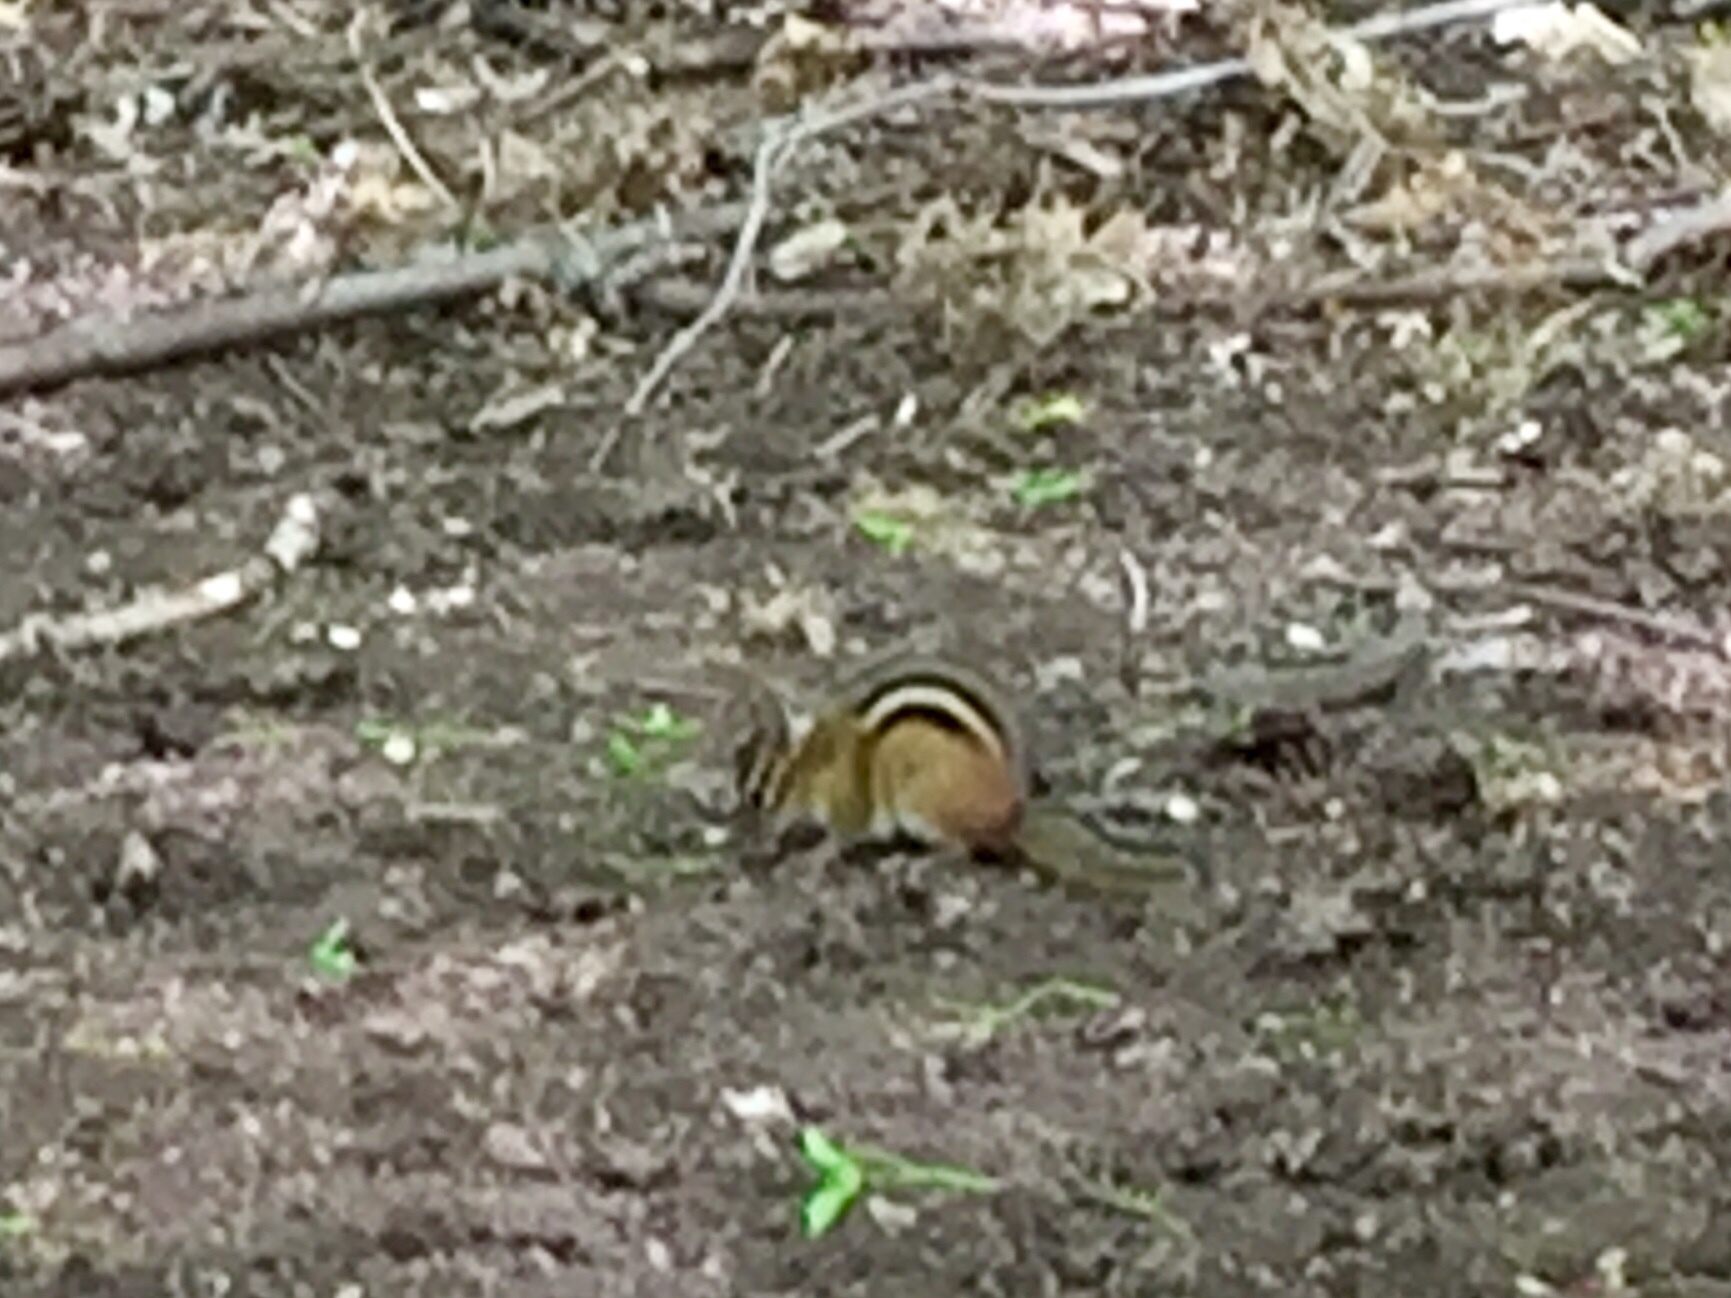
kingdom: Animalia
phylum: Chordata
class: Mammalia
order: Rodentia
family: Sciuridae
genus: Tamias
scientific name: Tamias striatus
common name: Eastern chipmunk
